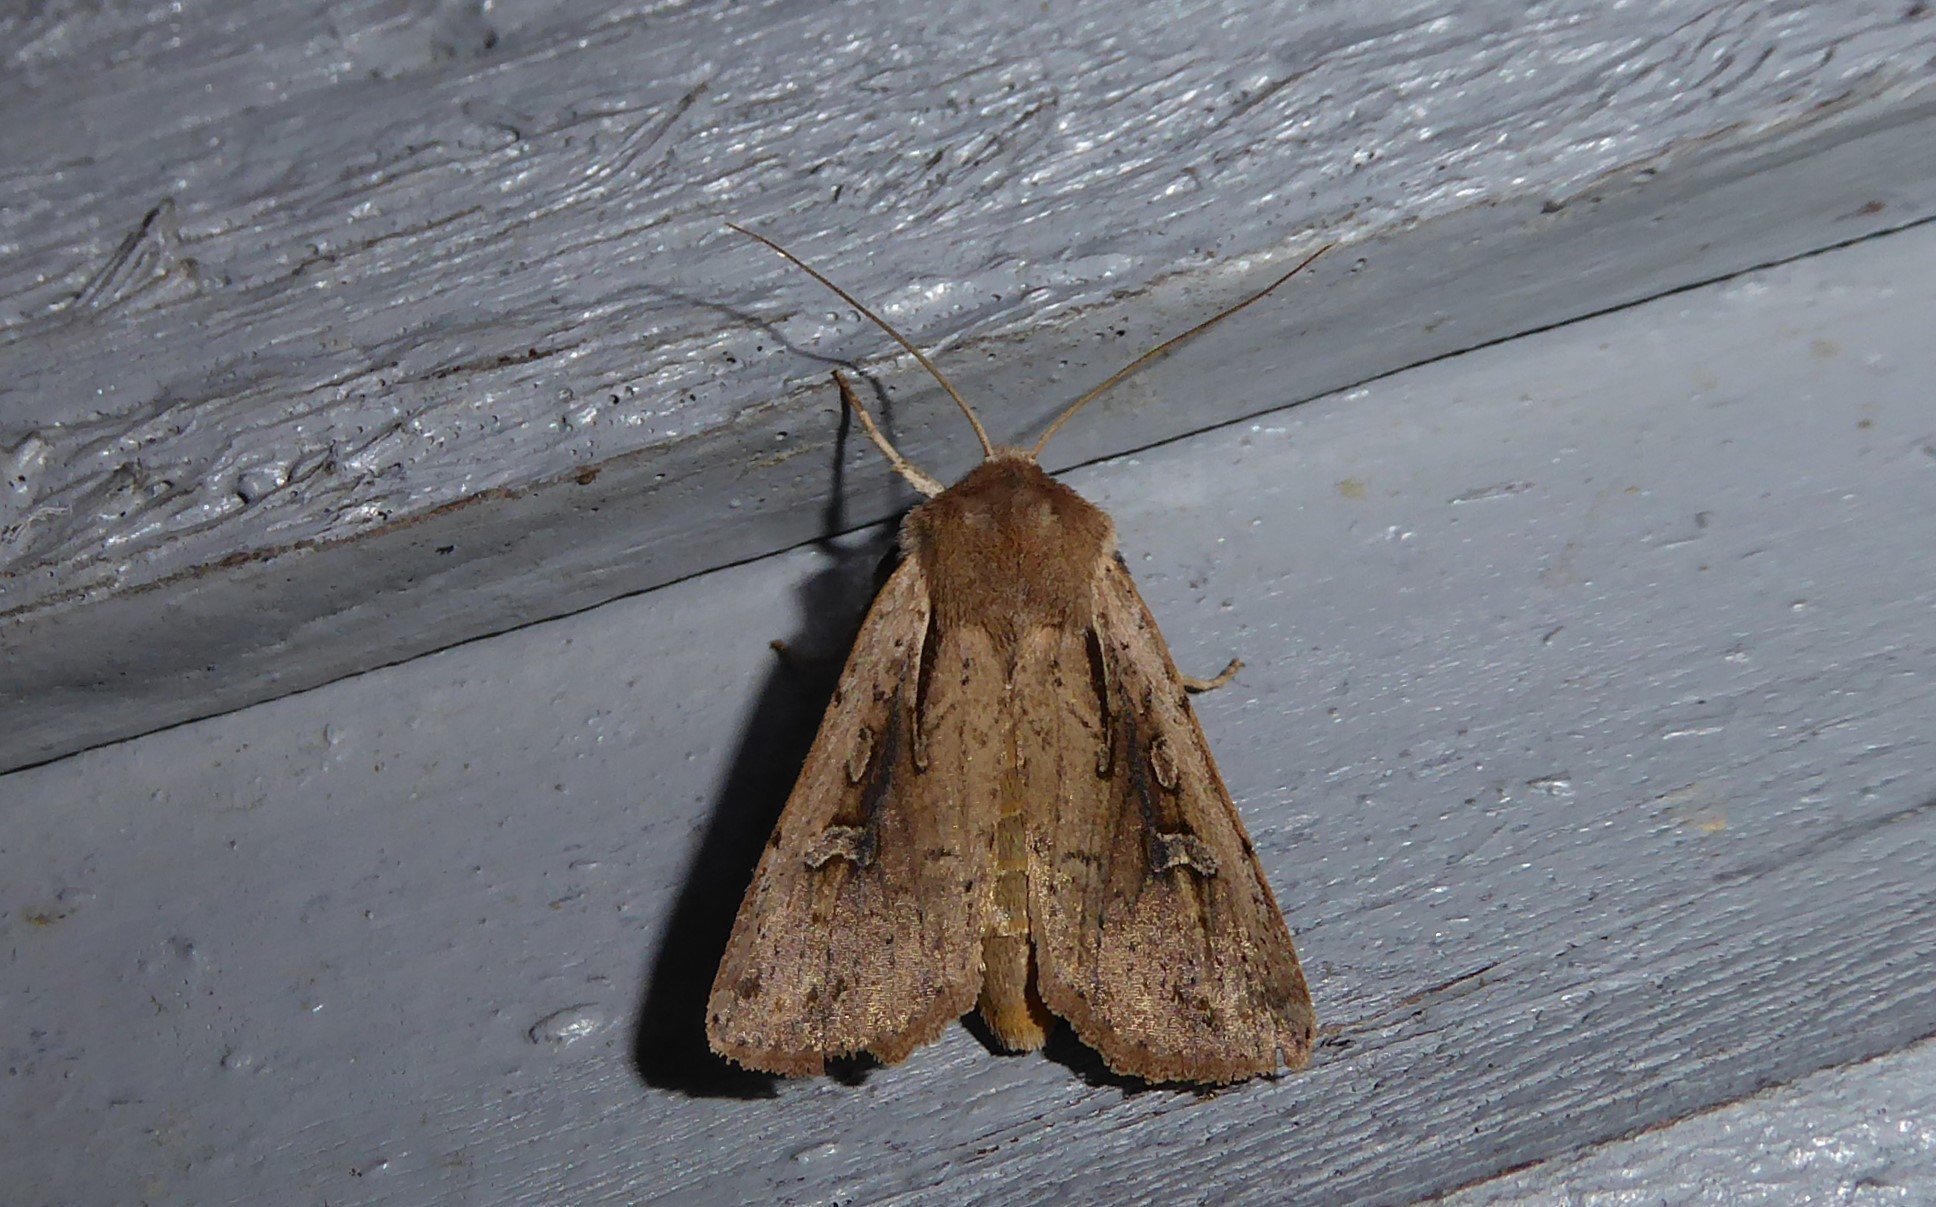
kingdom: Animalia
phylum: Arthropoda
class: Insecta
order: Lepidoptera
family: Noctuidae
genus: Ichneutica
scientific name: Ichneutica atristriga
